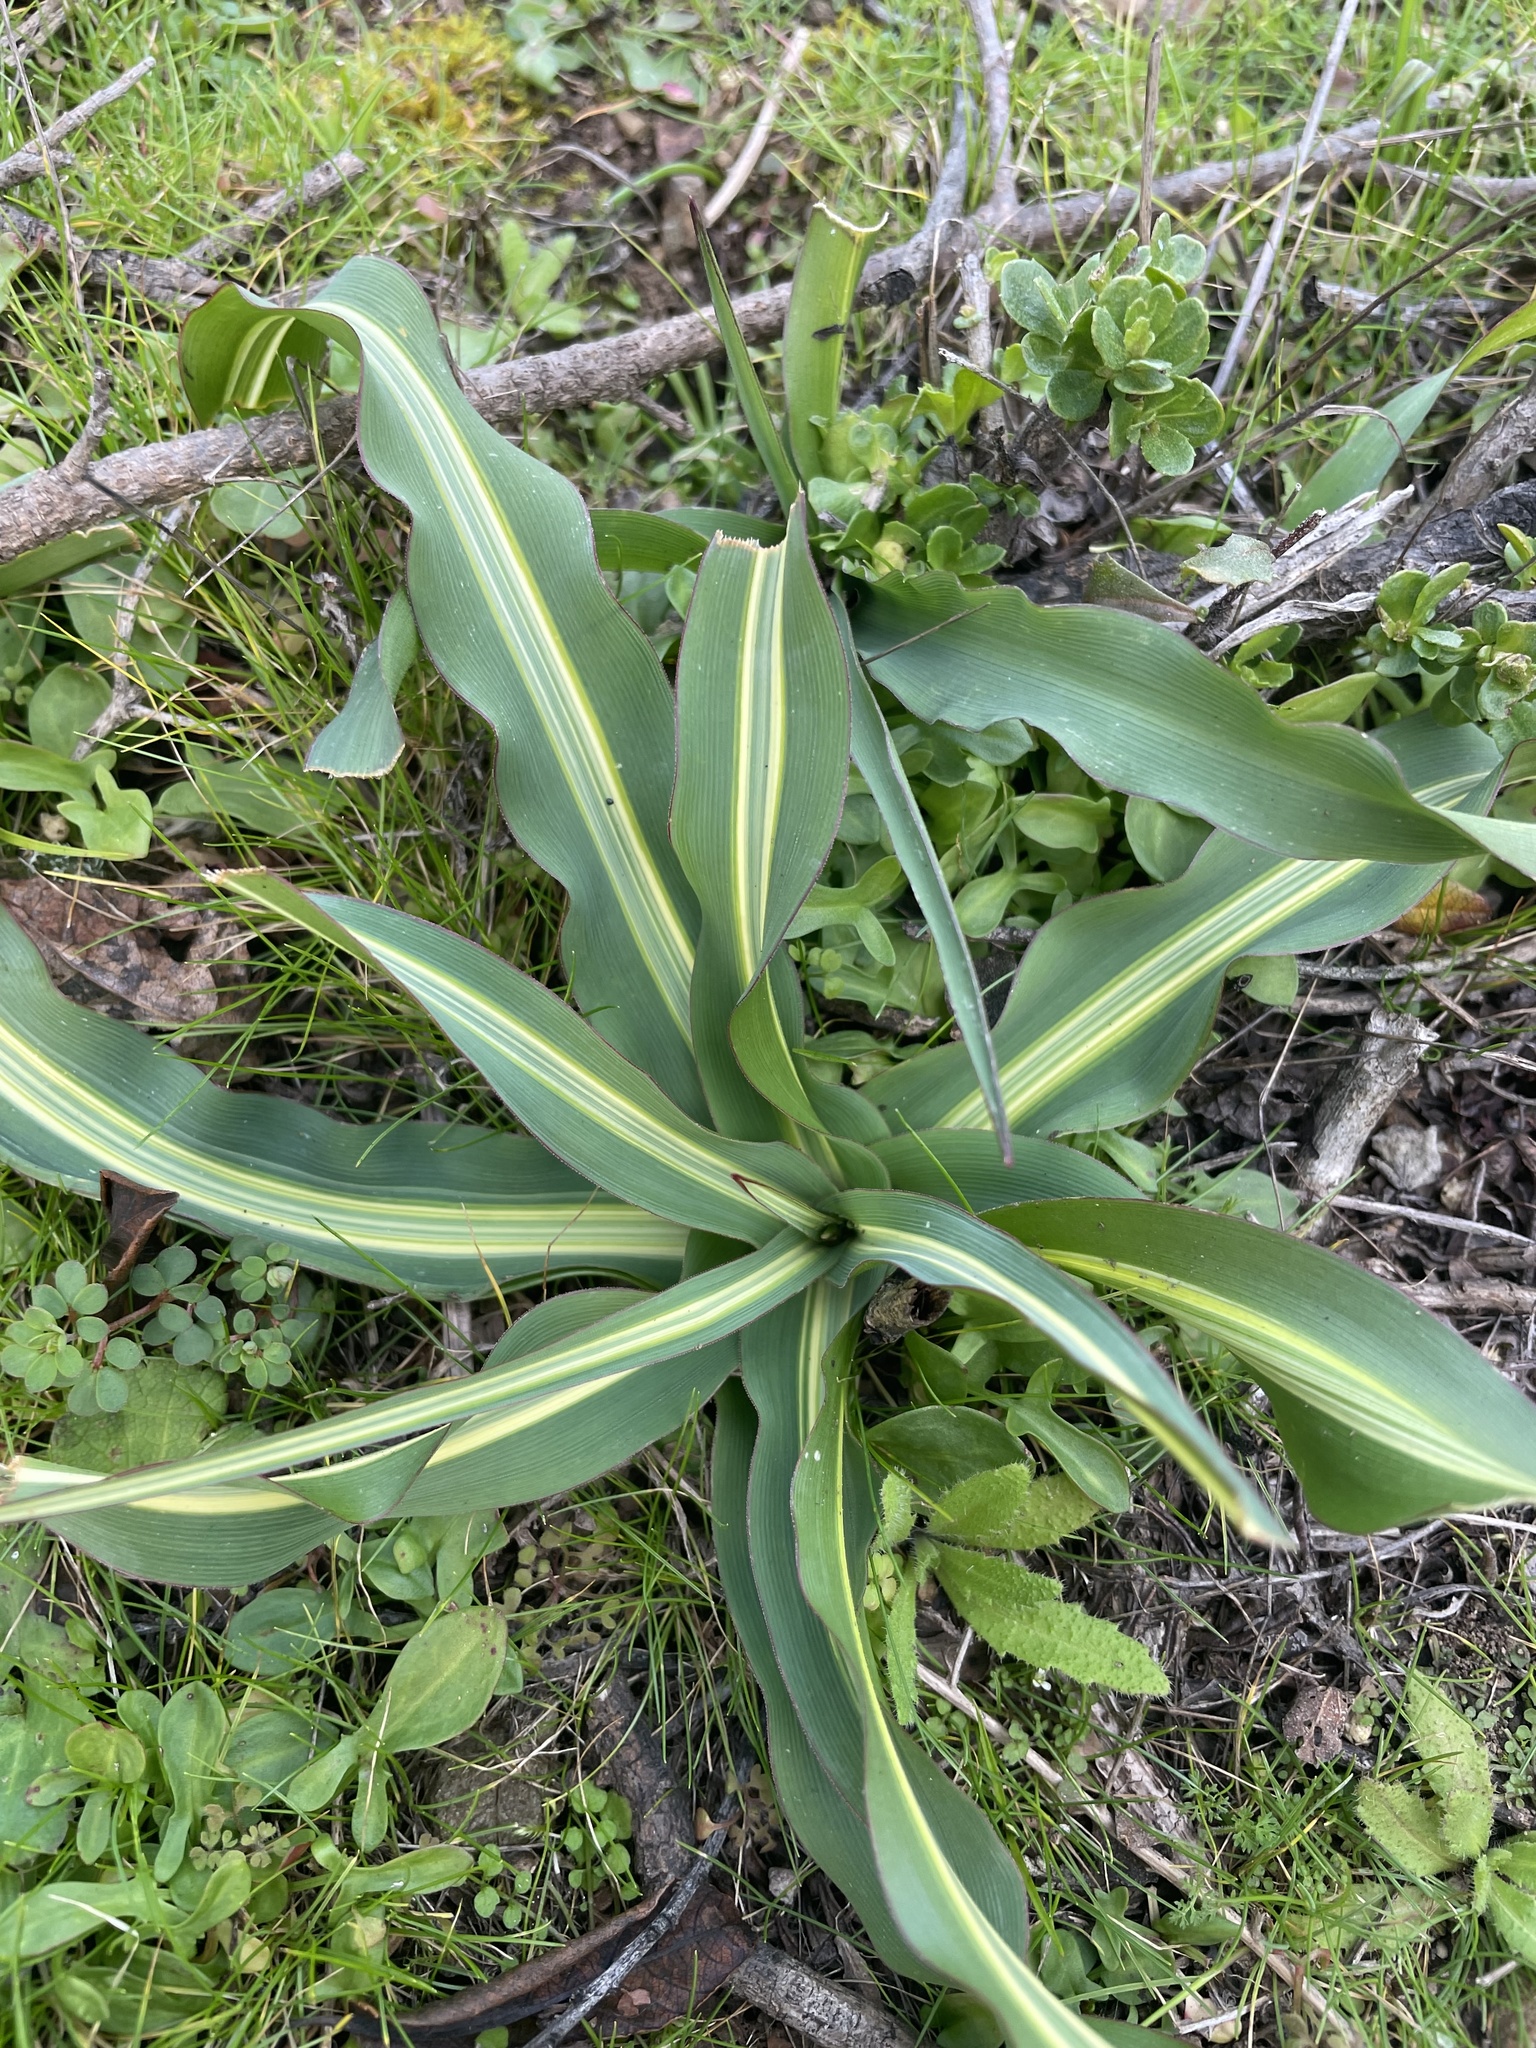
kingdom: Plantae
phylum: Tracheophyta
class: Liliopsida
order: Asparagales
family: Asparagaceae
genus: Chlorogalum
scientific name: Chlorogalum pomeridianum
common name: Amole
